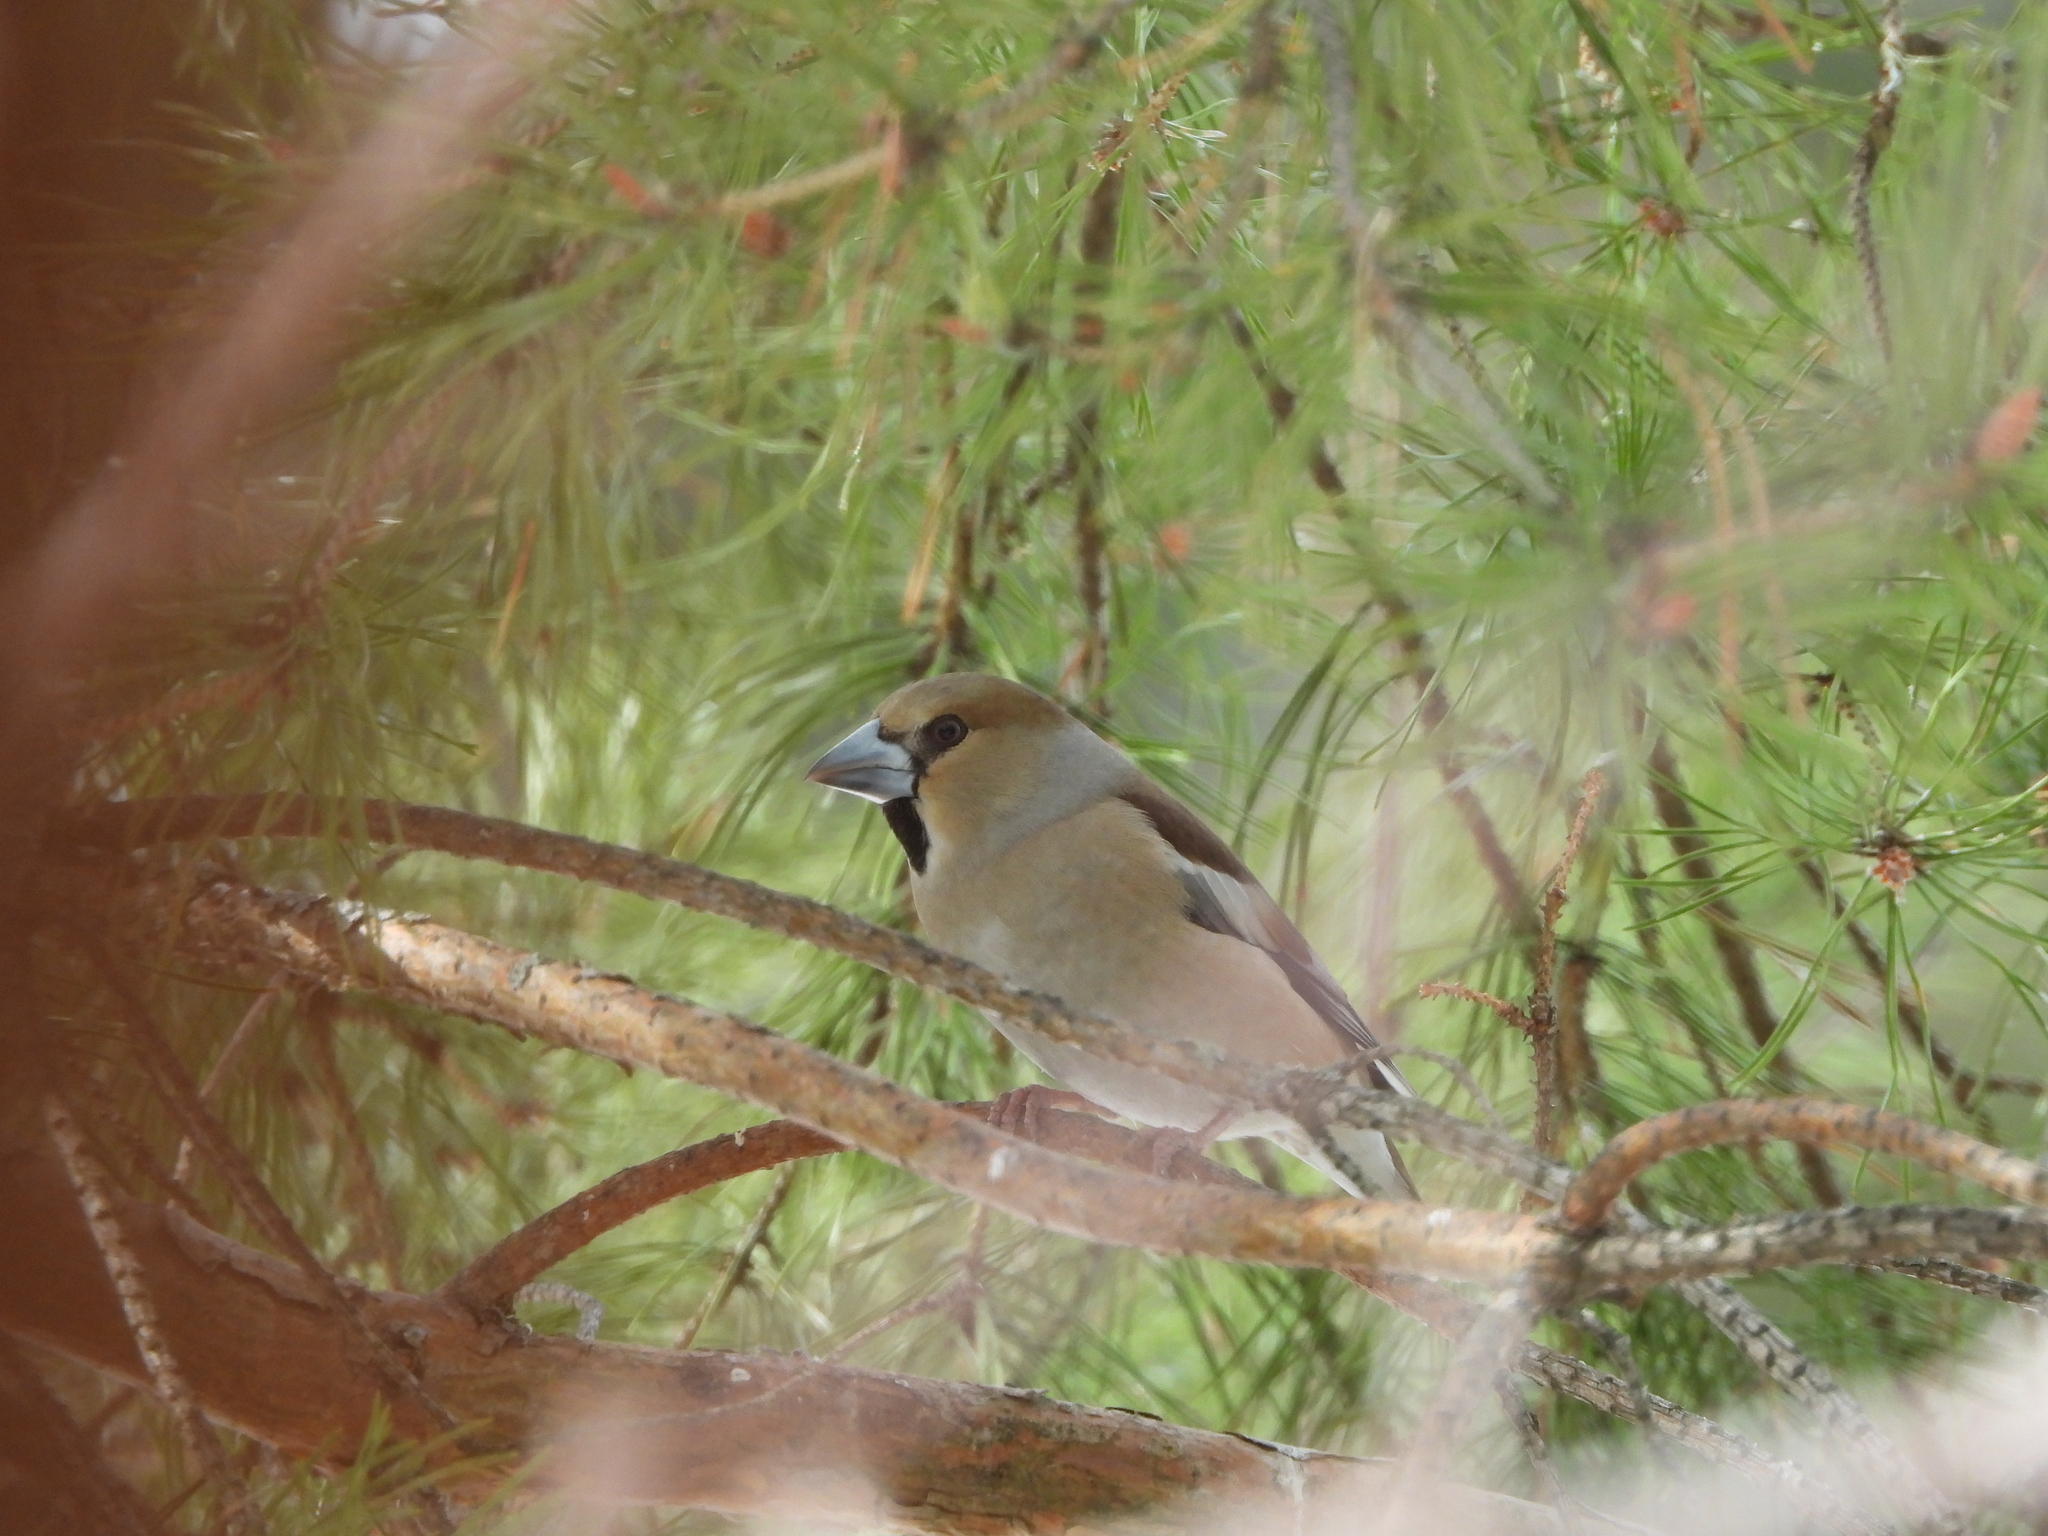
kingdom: Animalia
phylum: Chordata
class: Aves
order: Passeriformes
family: Fringillidae
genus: Coccothraustes
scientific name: Coccothraustes coccothraustes
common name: Hawfinch
